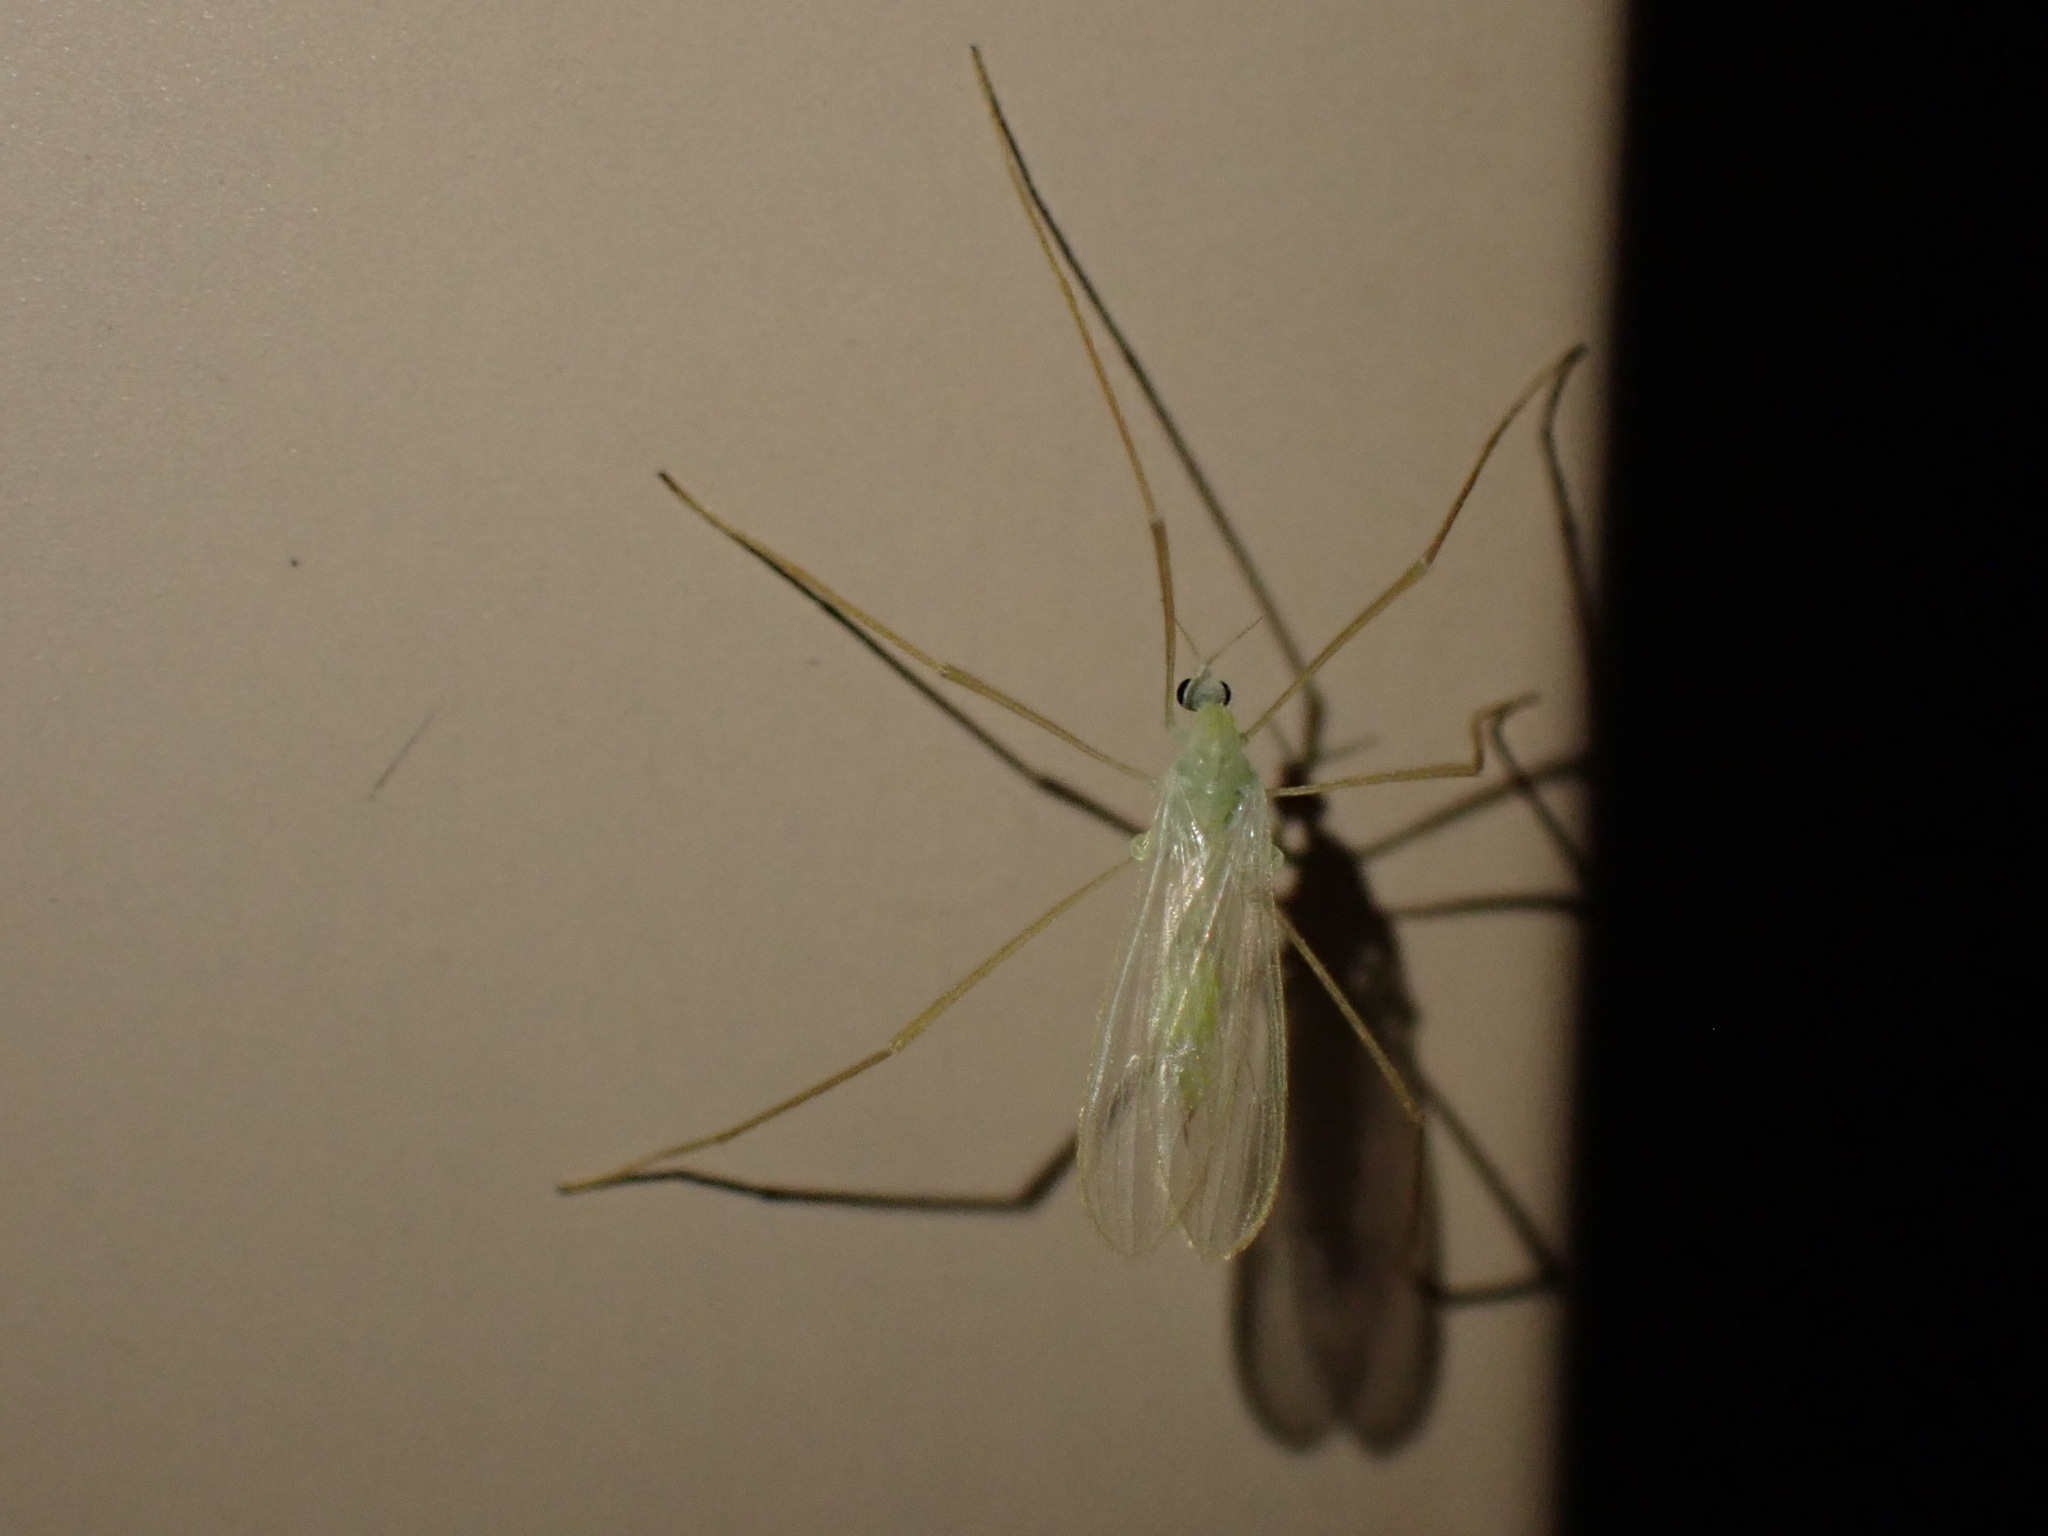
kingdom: Animalia
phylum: Arthropoda
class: Insecta
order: Diptera
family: Limoniidae
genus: Erioptera
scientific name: Erioptera
